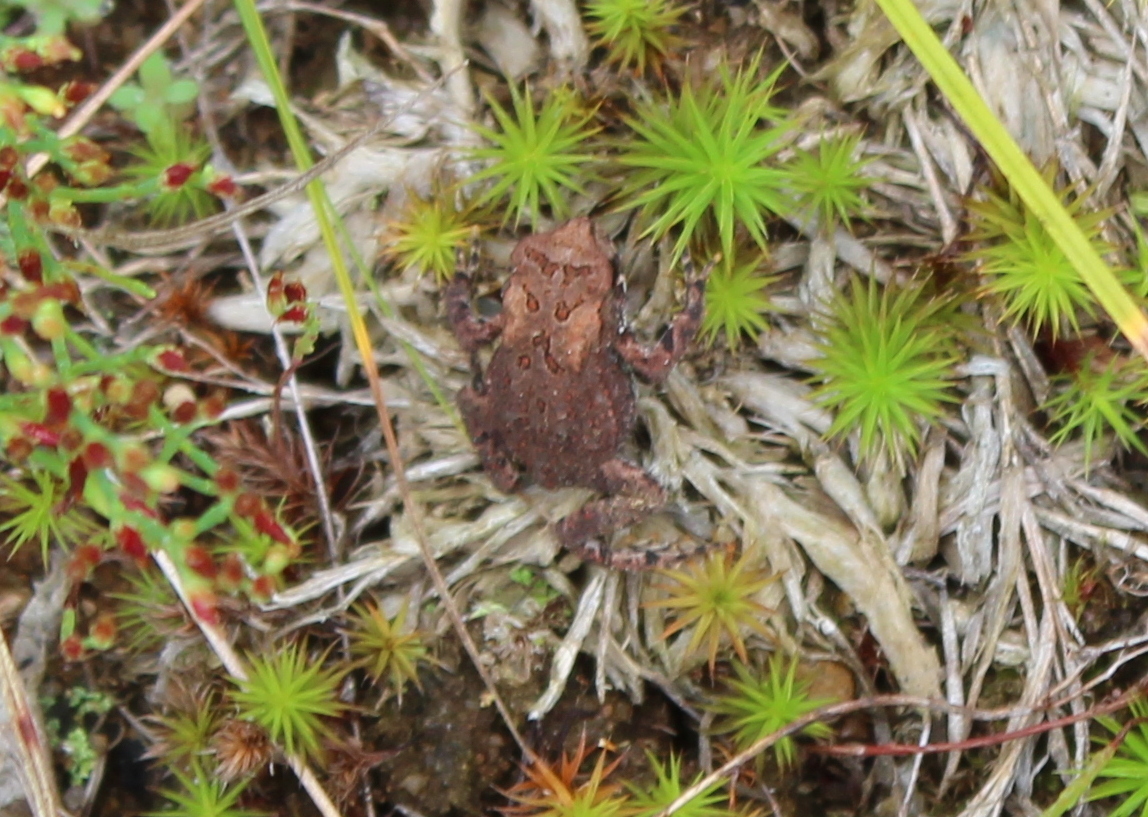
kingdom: Animalia
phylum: Chordata
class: Amphibia
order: Anura
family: Bufonidae
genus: Anaxyrus
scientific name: Anaxyrus americanus
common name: American toad
